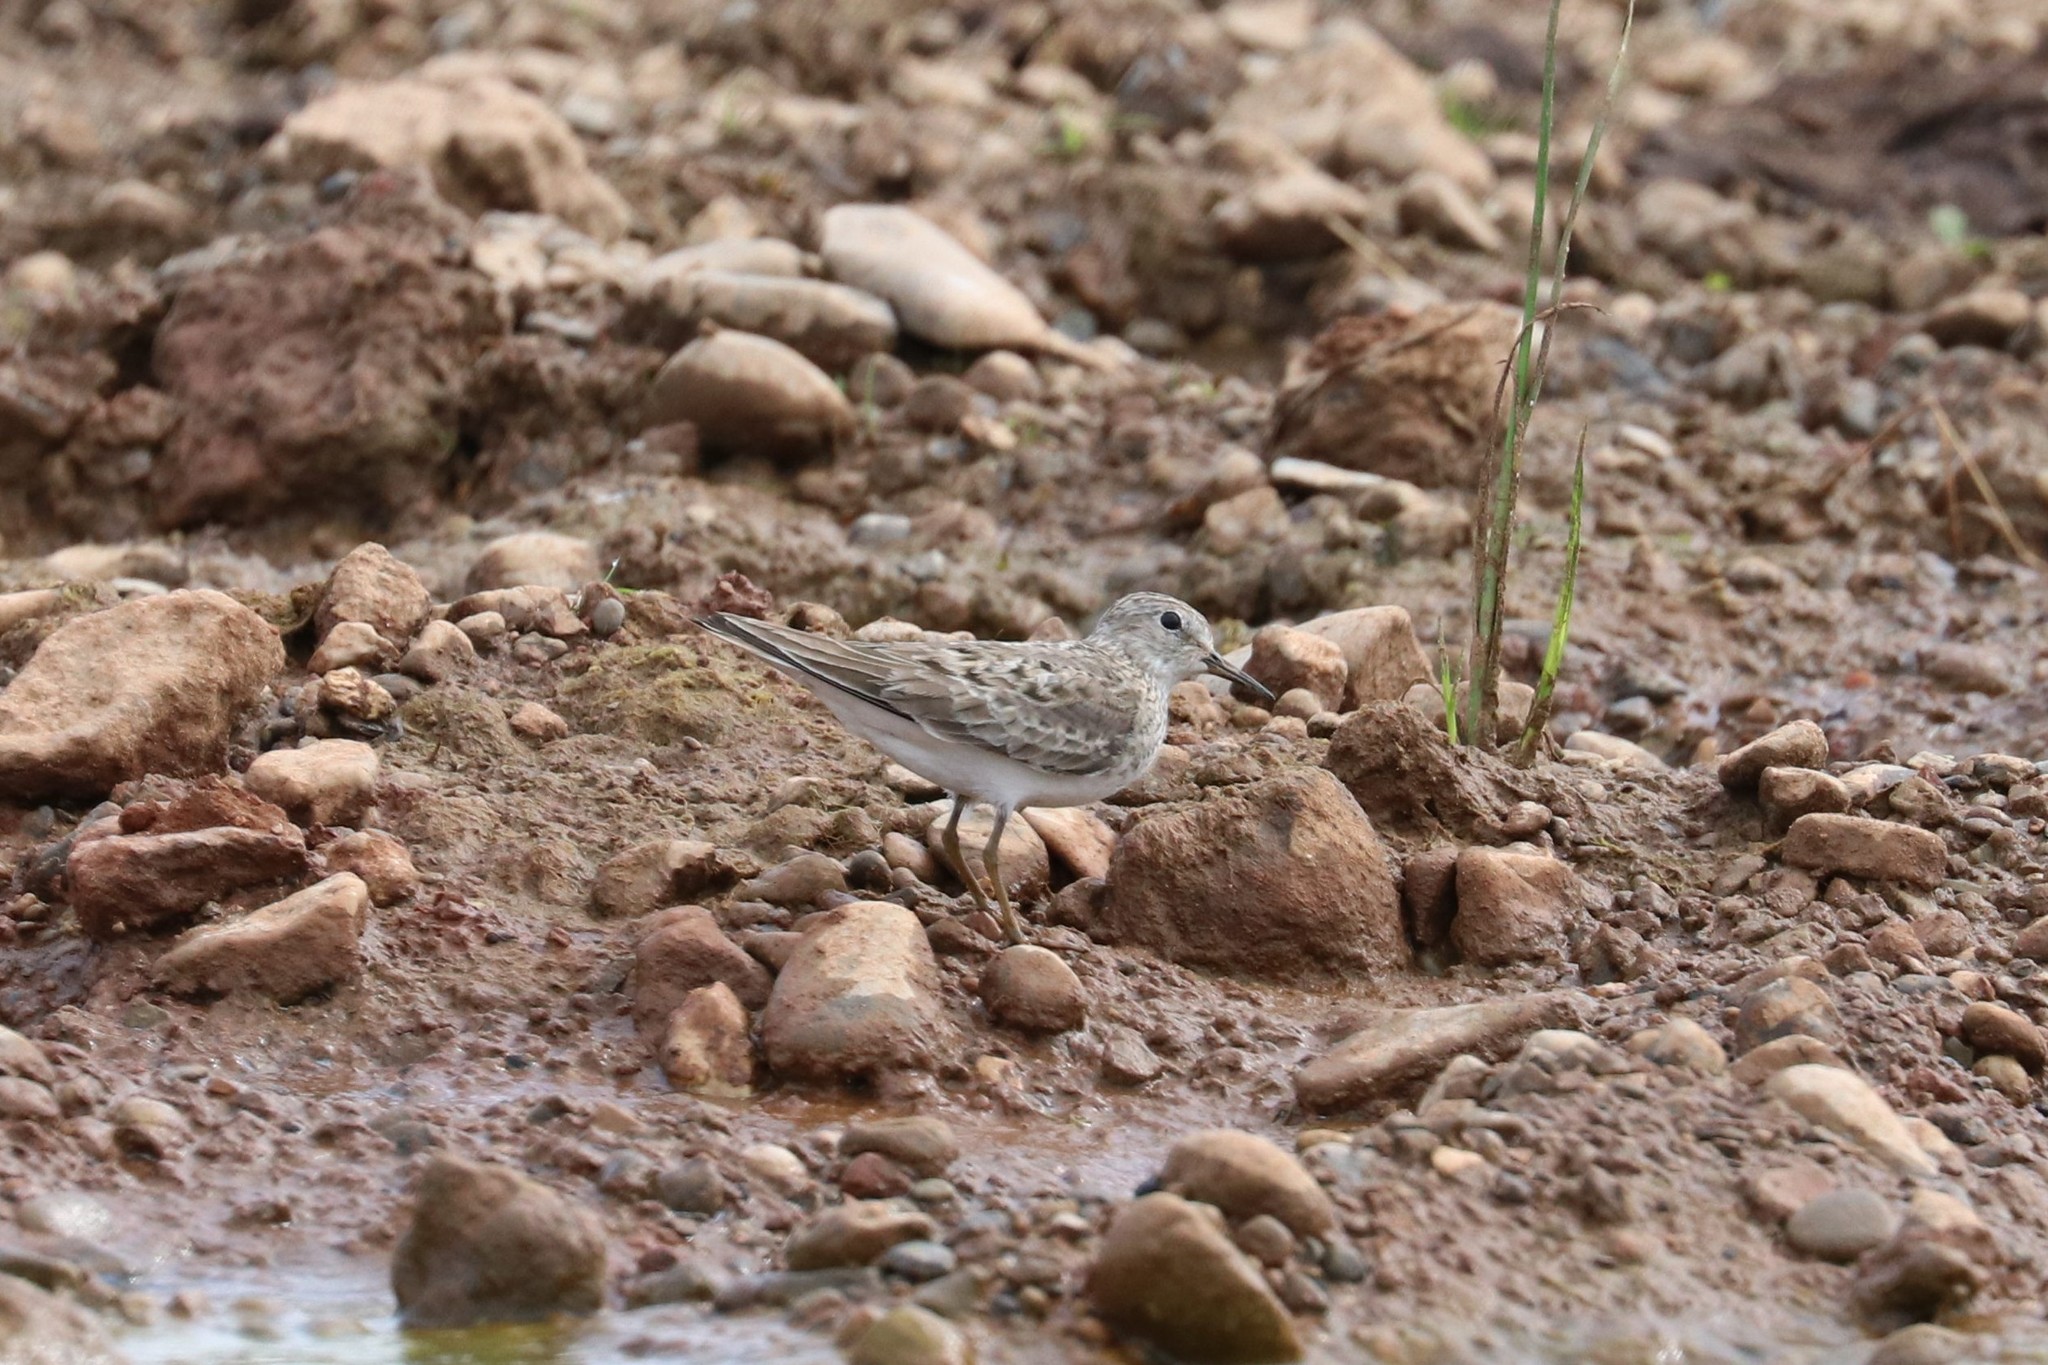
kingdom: Animalia
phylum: Chordata
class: Aves
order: Charadriiformes
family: Scolopacidae
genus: Calidris
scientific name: Calidris temminckii
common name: Temminck's stint
